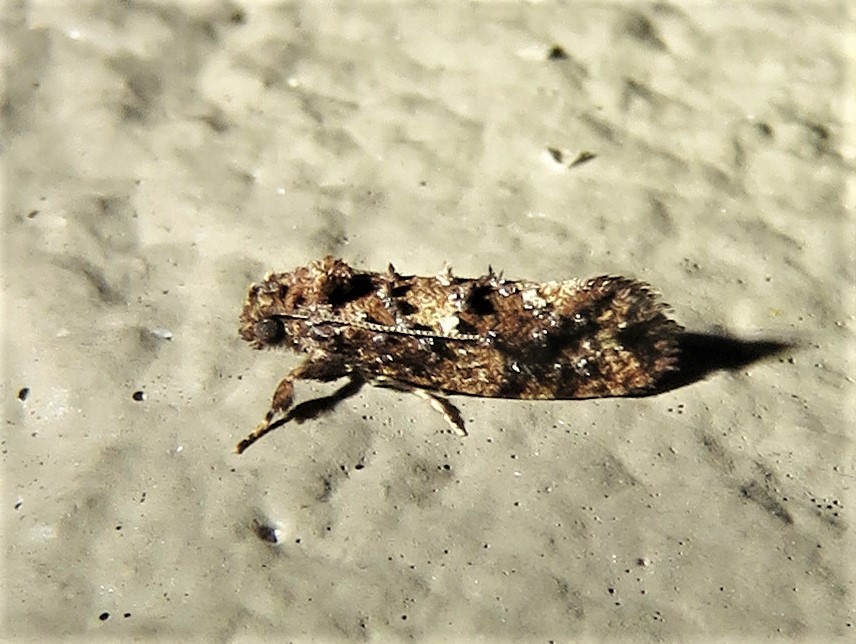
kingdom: Animalia
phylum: Arthropoda
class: Insecta
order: Lepidoptera
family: Tineidae
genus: Acrolophus
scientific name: Acrolophus cressoni
